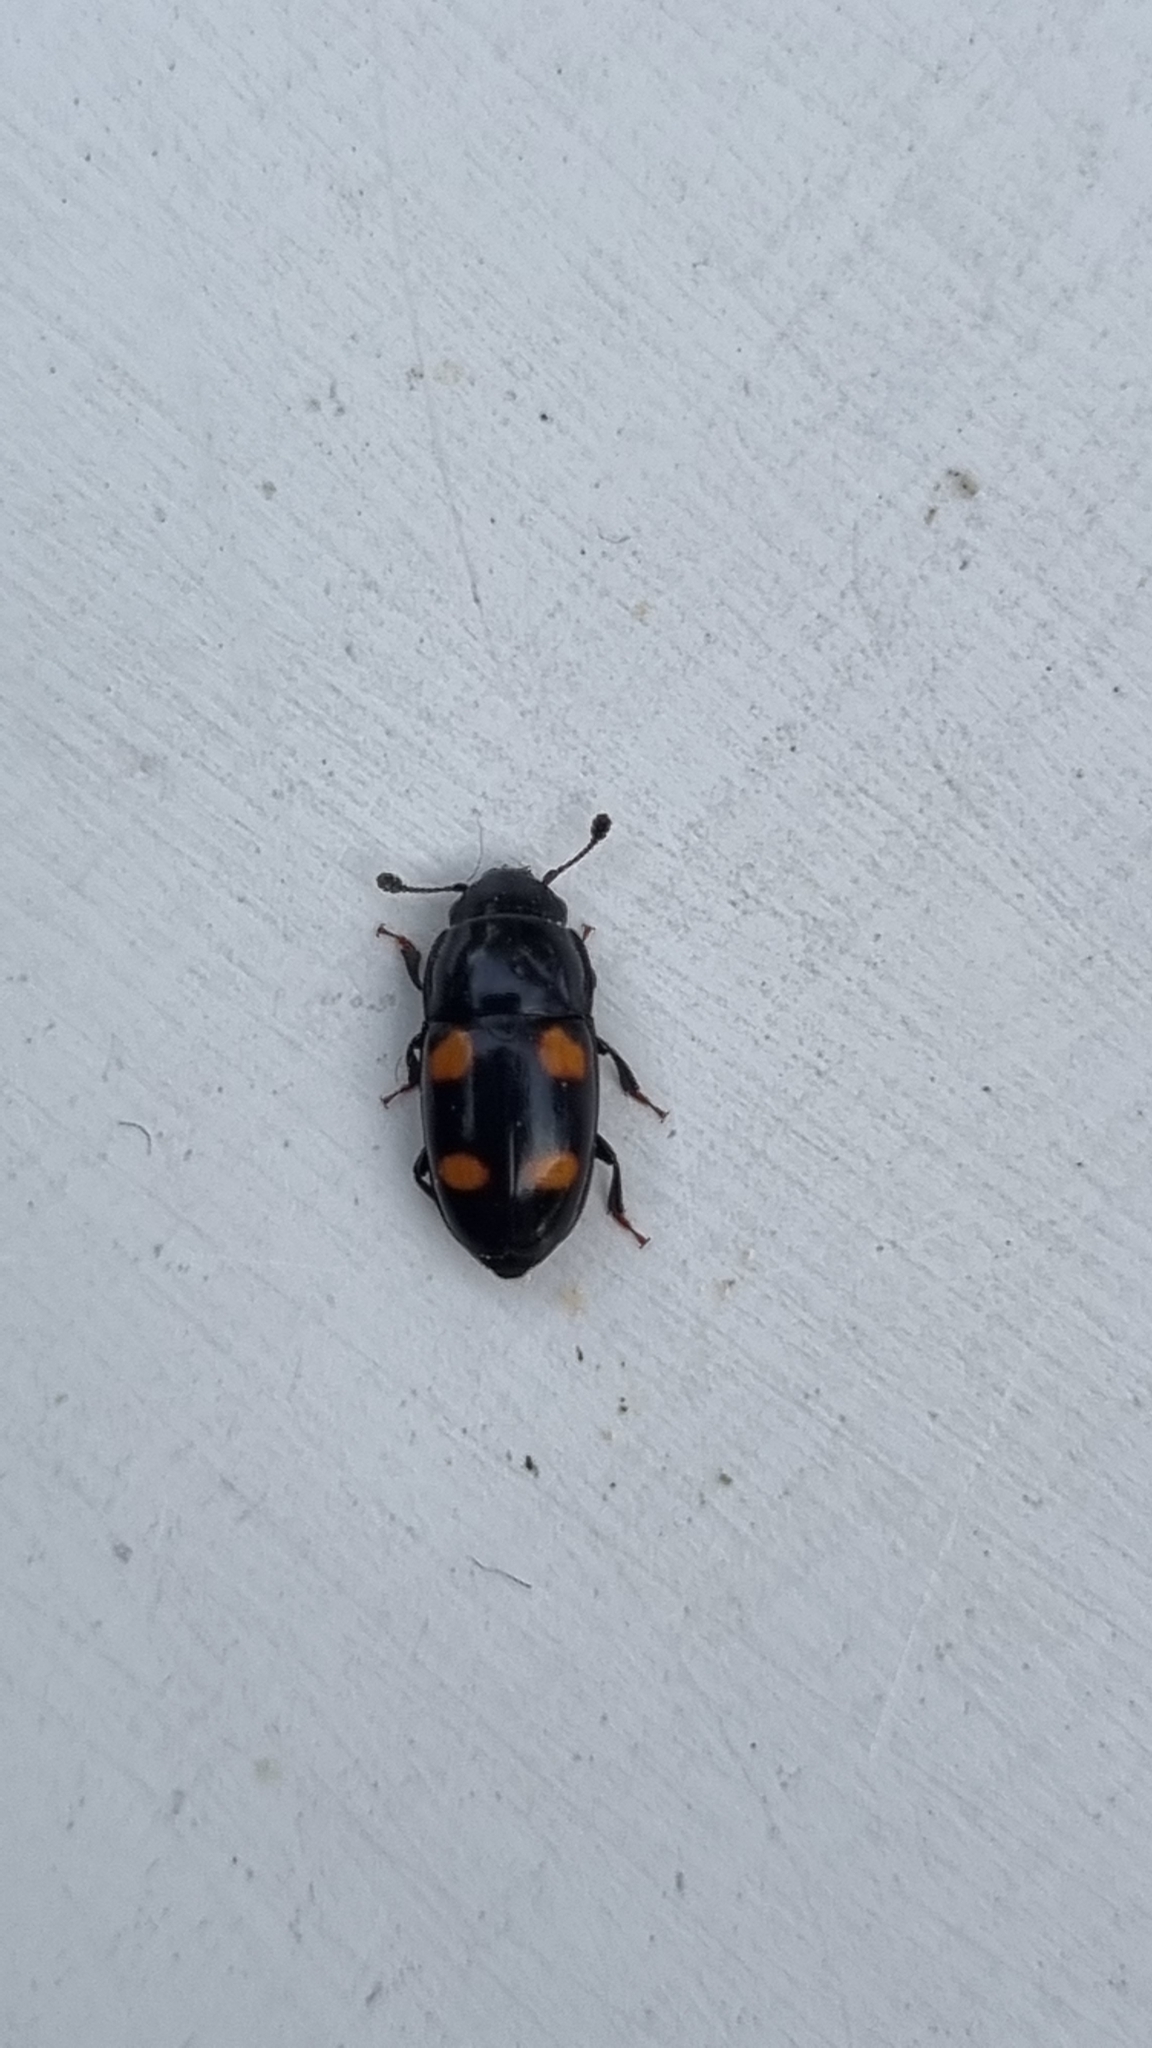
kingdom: Animalia
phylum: Arthropoda
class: Insecta
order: Coleoptera
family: Nitidulidae
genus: Glischrochilus
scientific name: Glischrochilus hortensis
